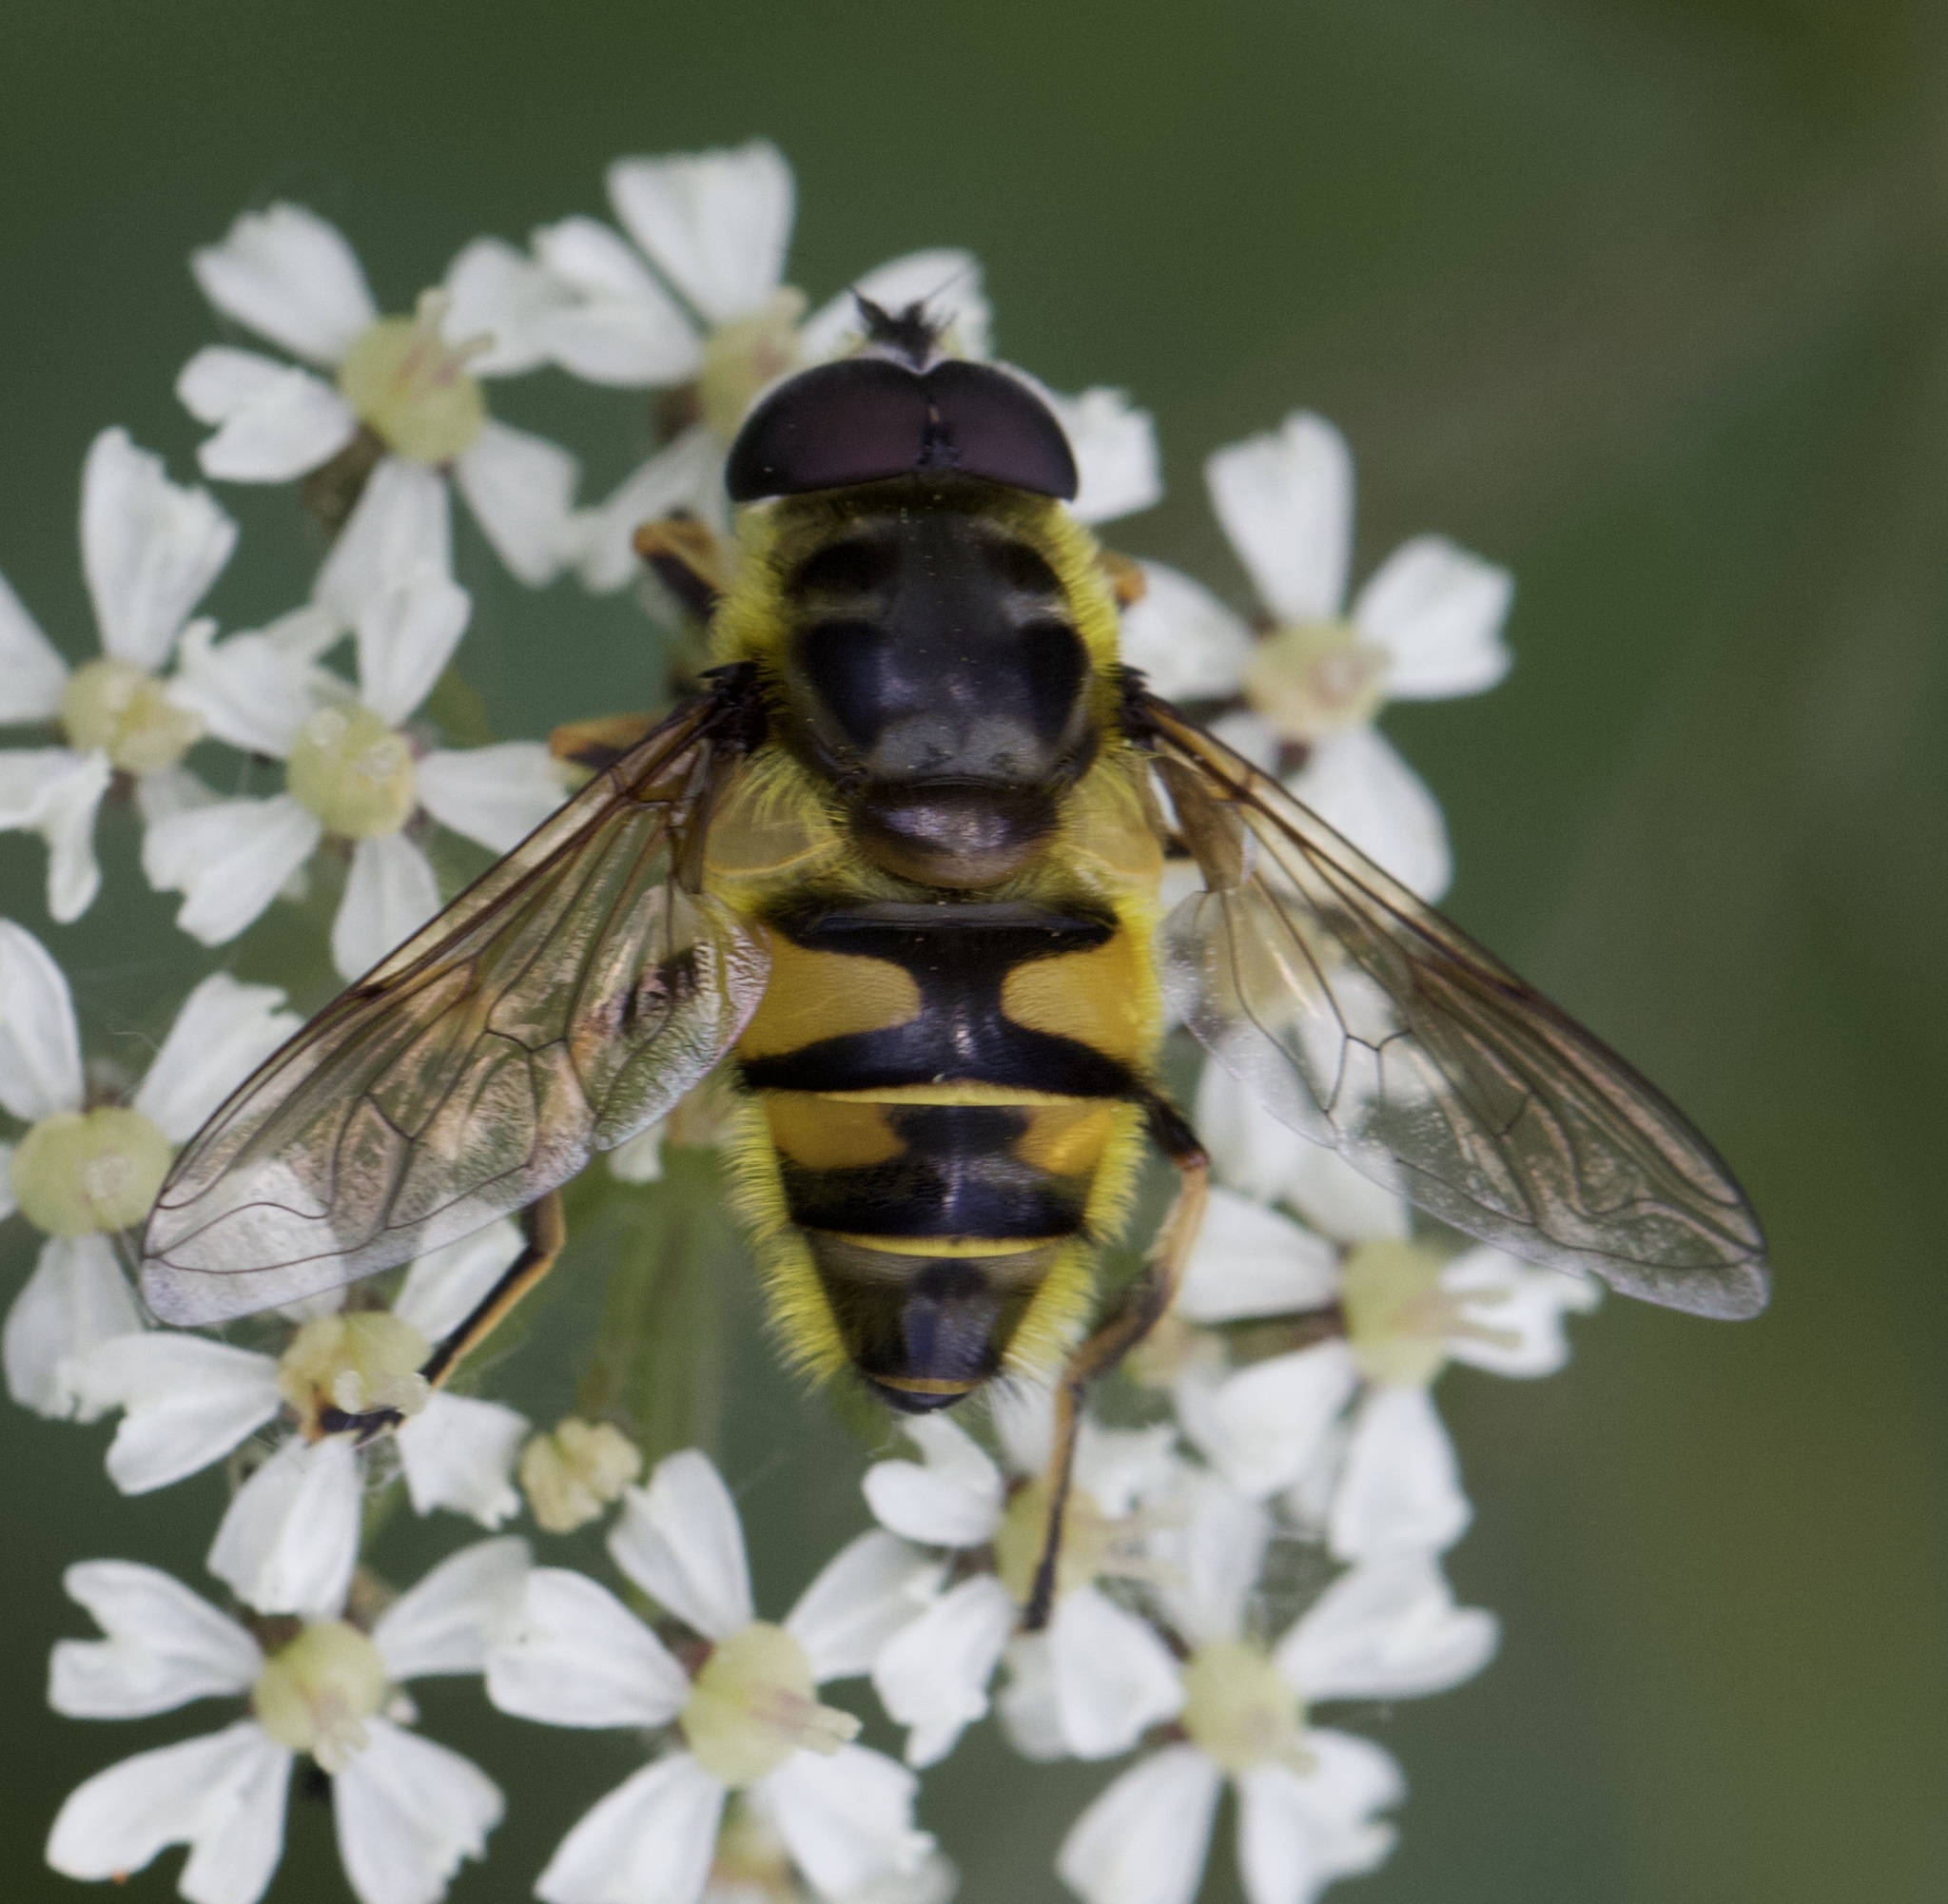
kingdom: Animalia
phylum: Arthropoda
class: Insecta
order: Diptera
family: Syrphidae
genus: Myathropa
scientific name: Myathropa florea
